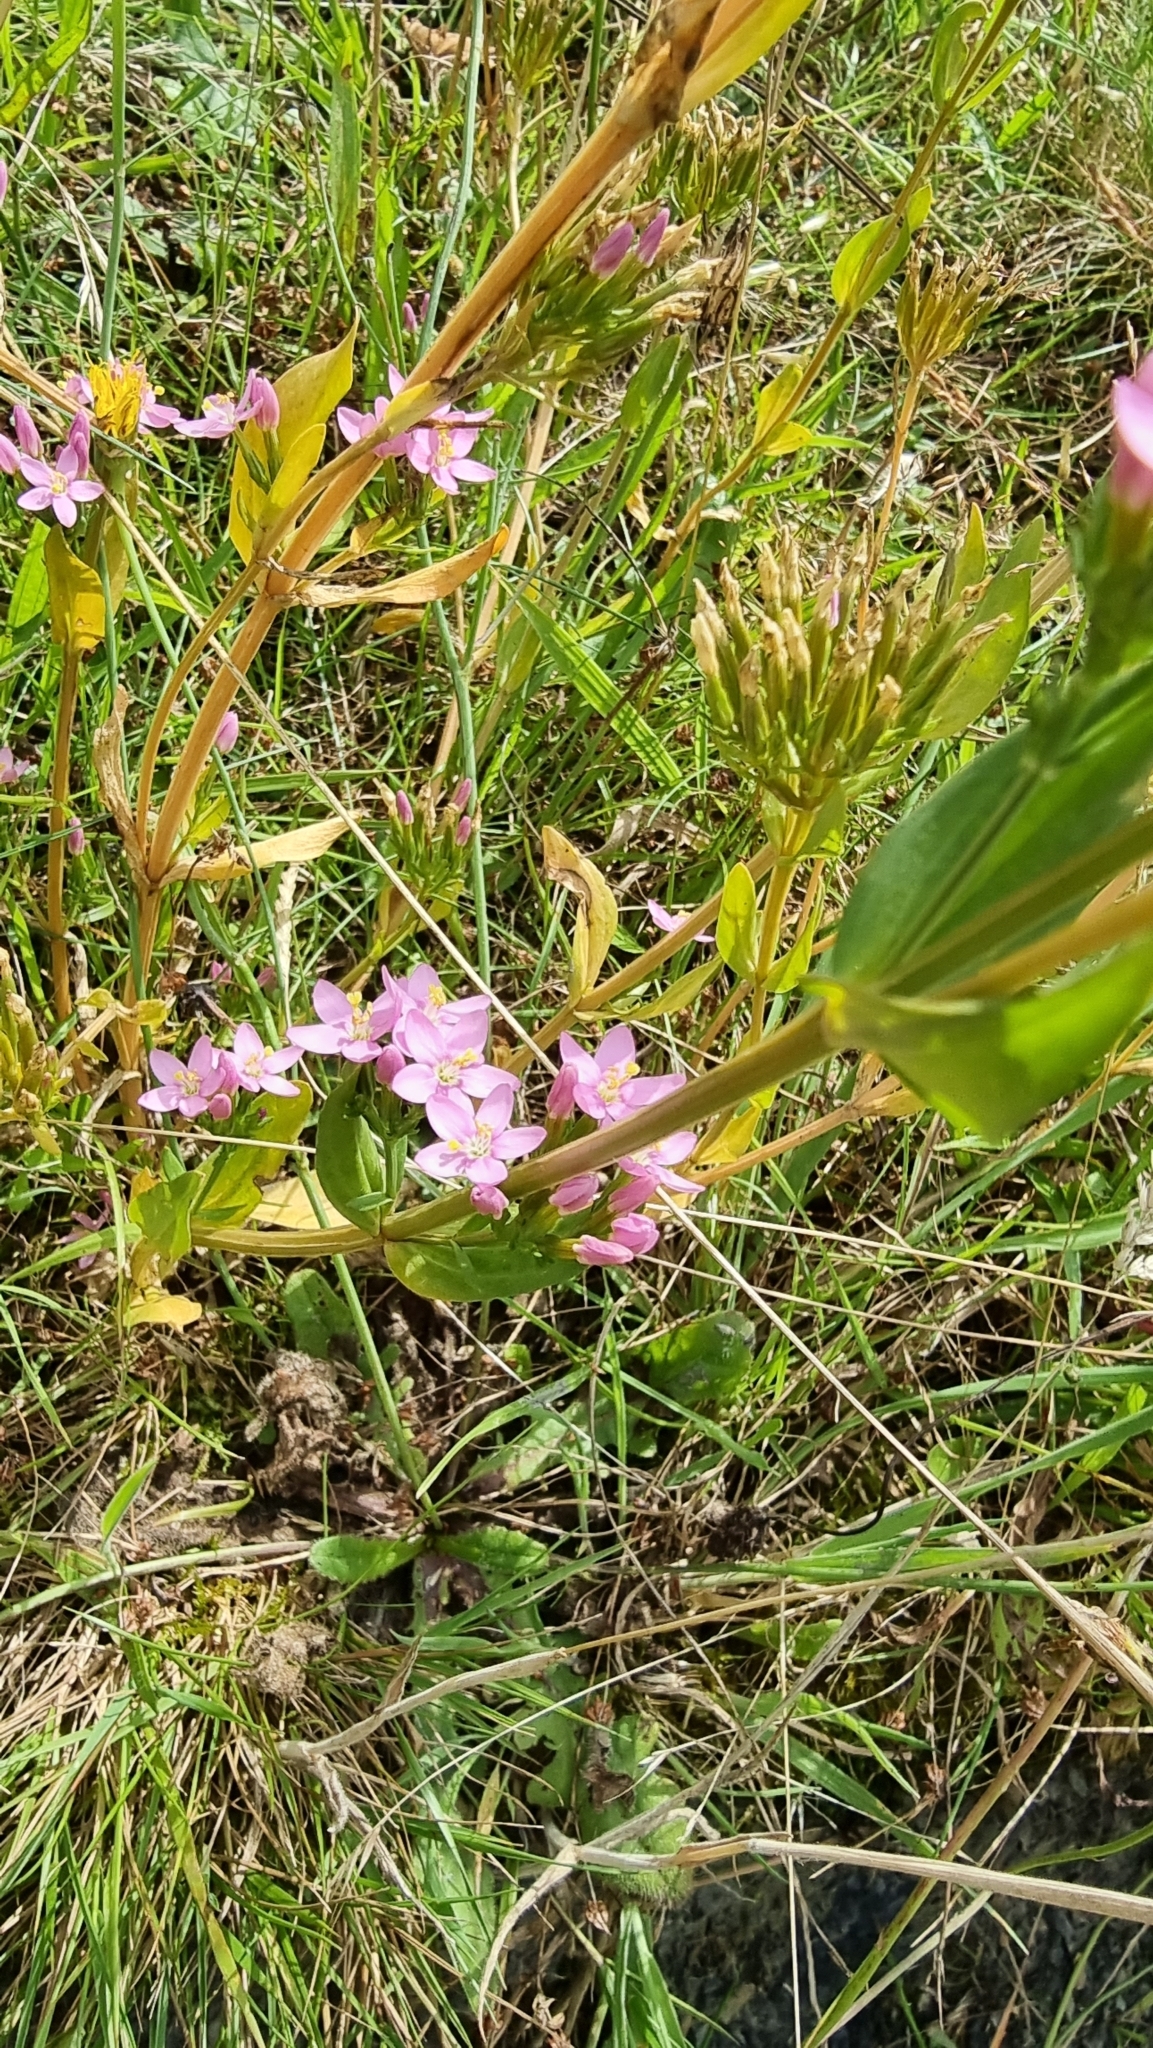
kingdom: Plantae
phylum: Tracheophyta
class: Magnoliopsida
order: Gentianales
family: Gentianaceae
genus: Centaurium
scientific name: Centaurium erythraea
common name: Common centaury
